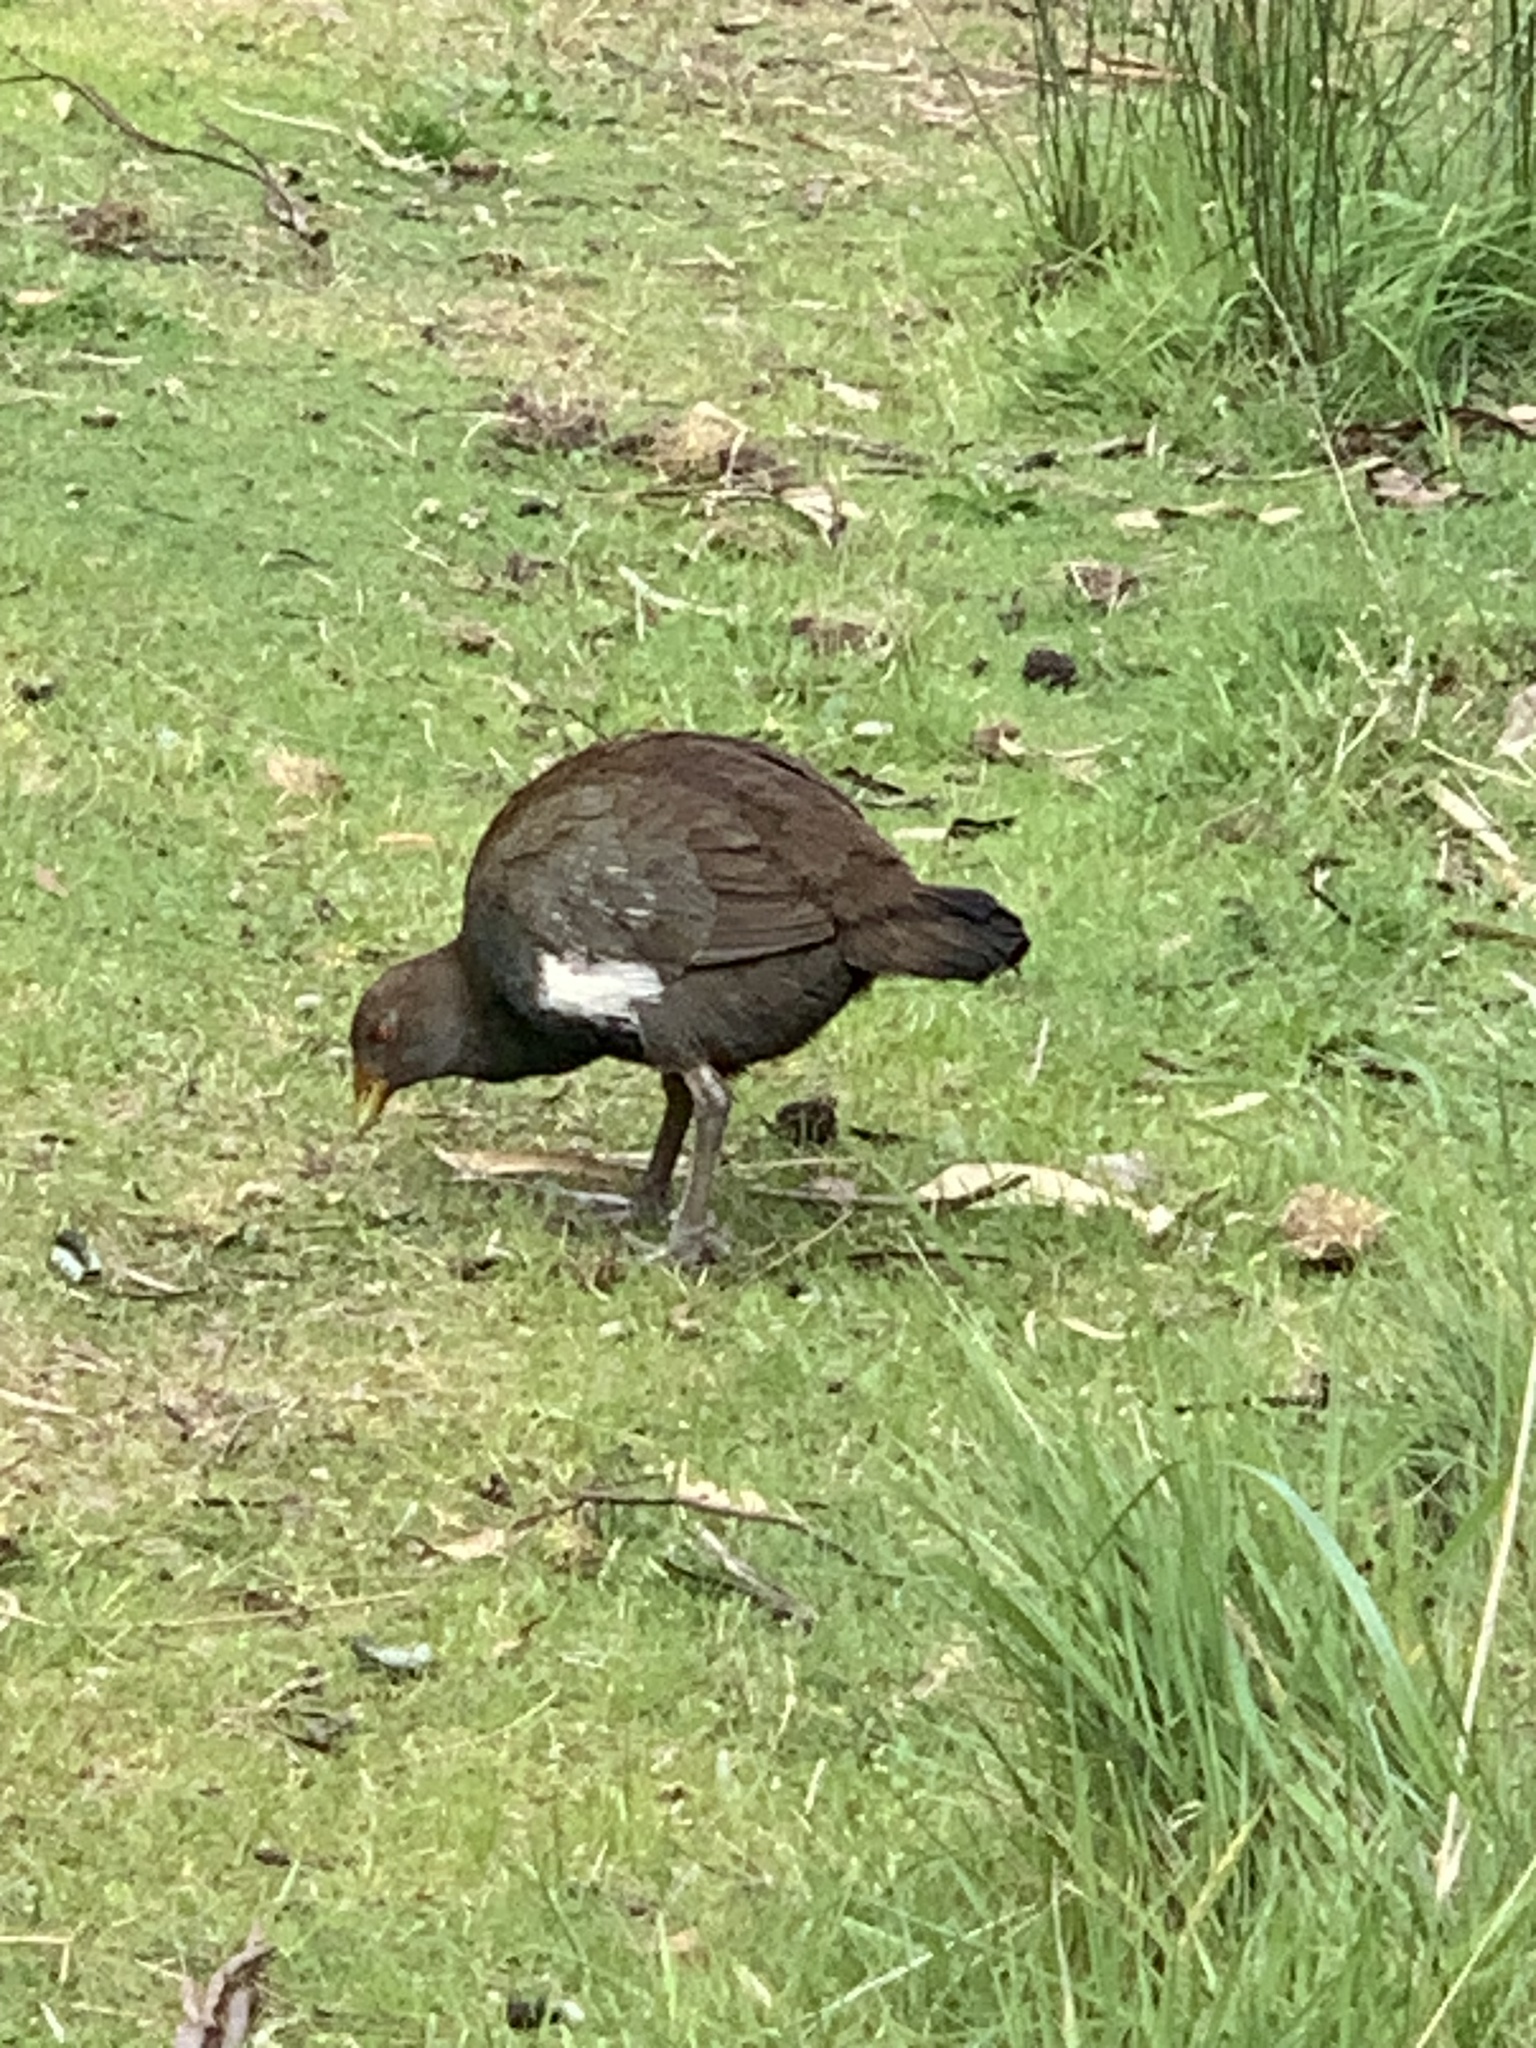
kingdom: Animalia
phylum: Chordata
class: Aves
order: Gruiformes
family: Rallidae
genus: Gallinula
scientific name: Gallinula mortierii
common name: Tasmanian nativehen
